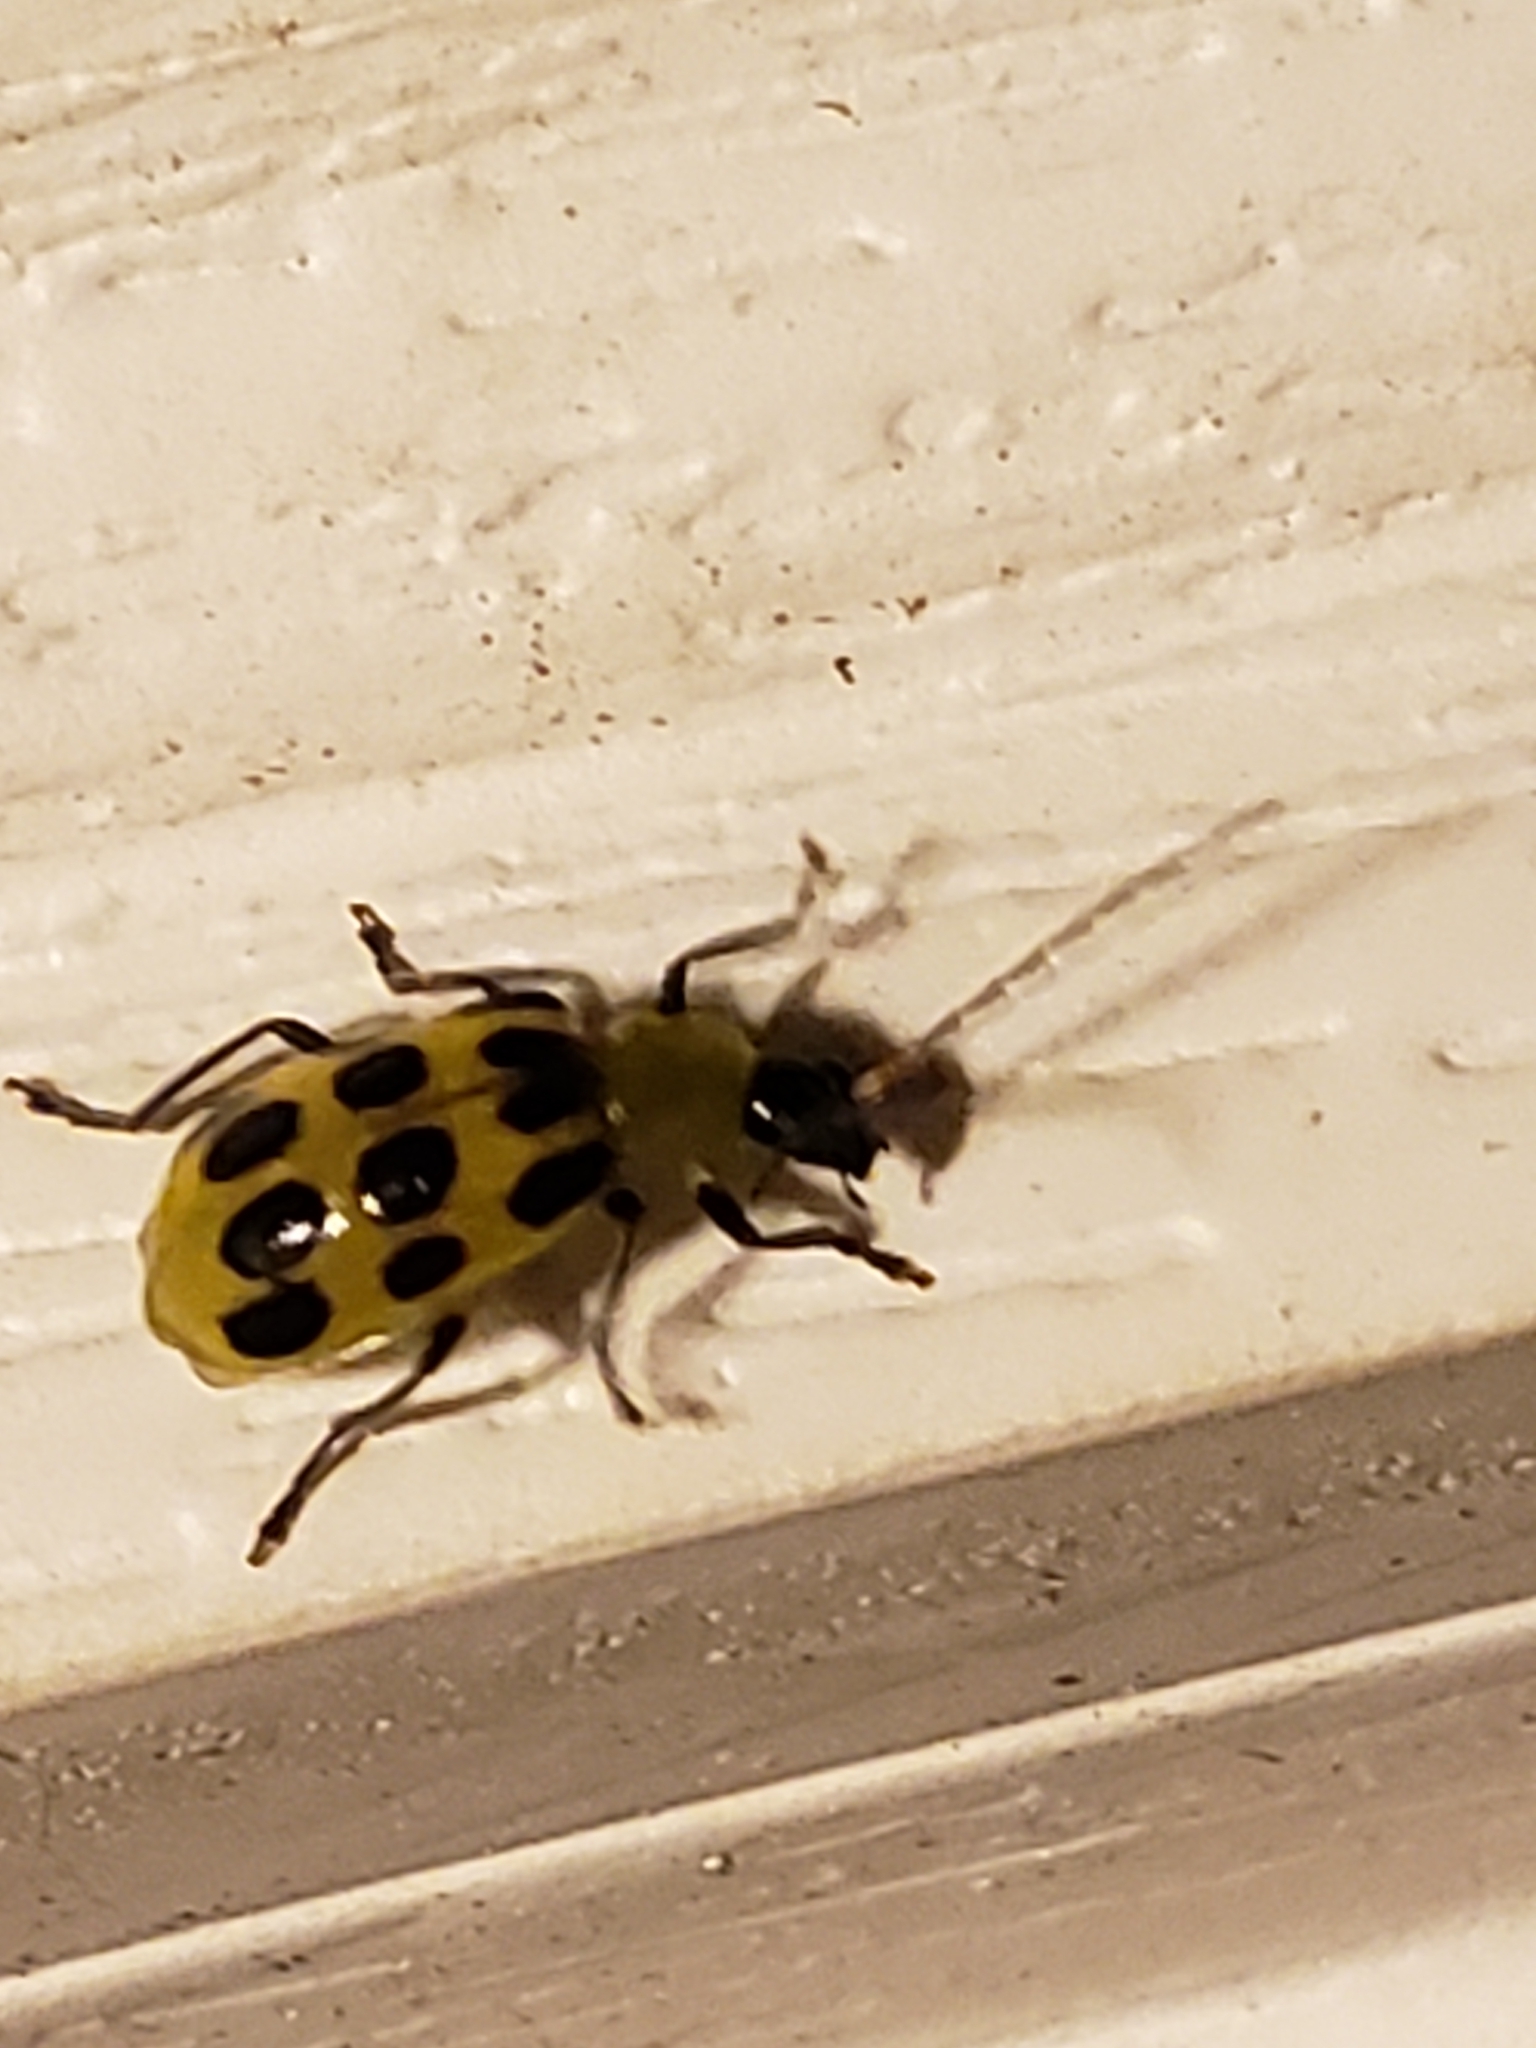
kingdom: Animalia
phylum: Arthropoda
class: Insecta
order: Coleoptera
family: Chrysomelidae
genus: Diabrotica
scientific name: Diabrotica undecimpunctata
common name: Spotted cucumber beetle
